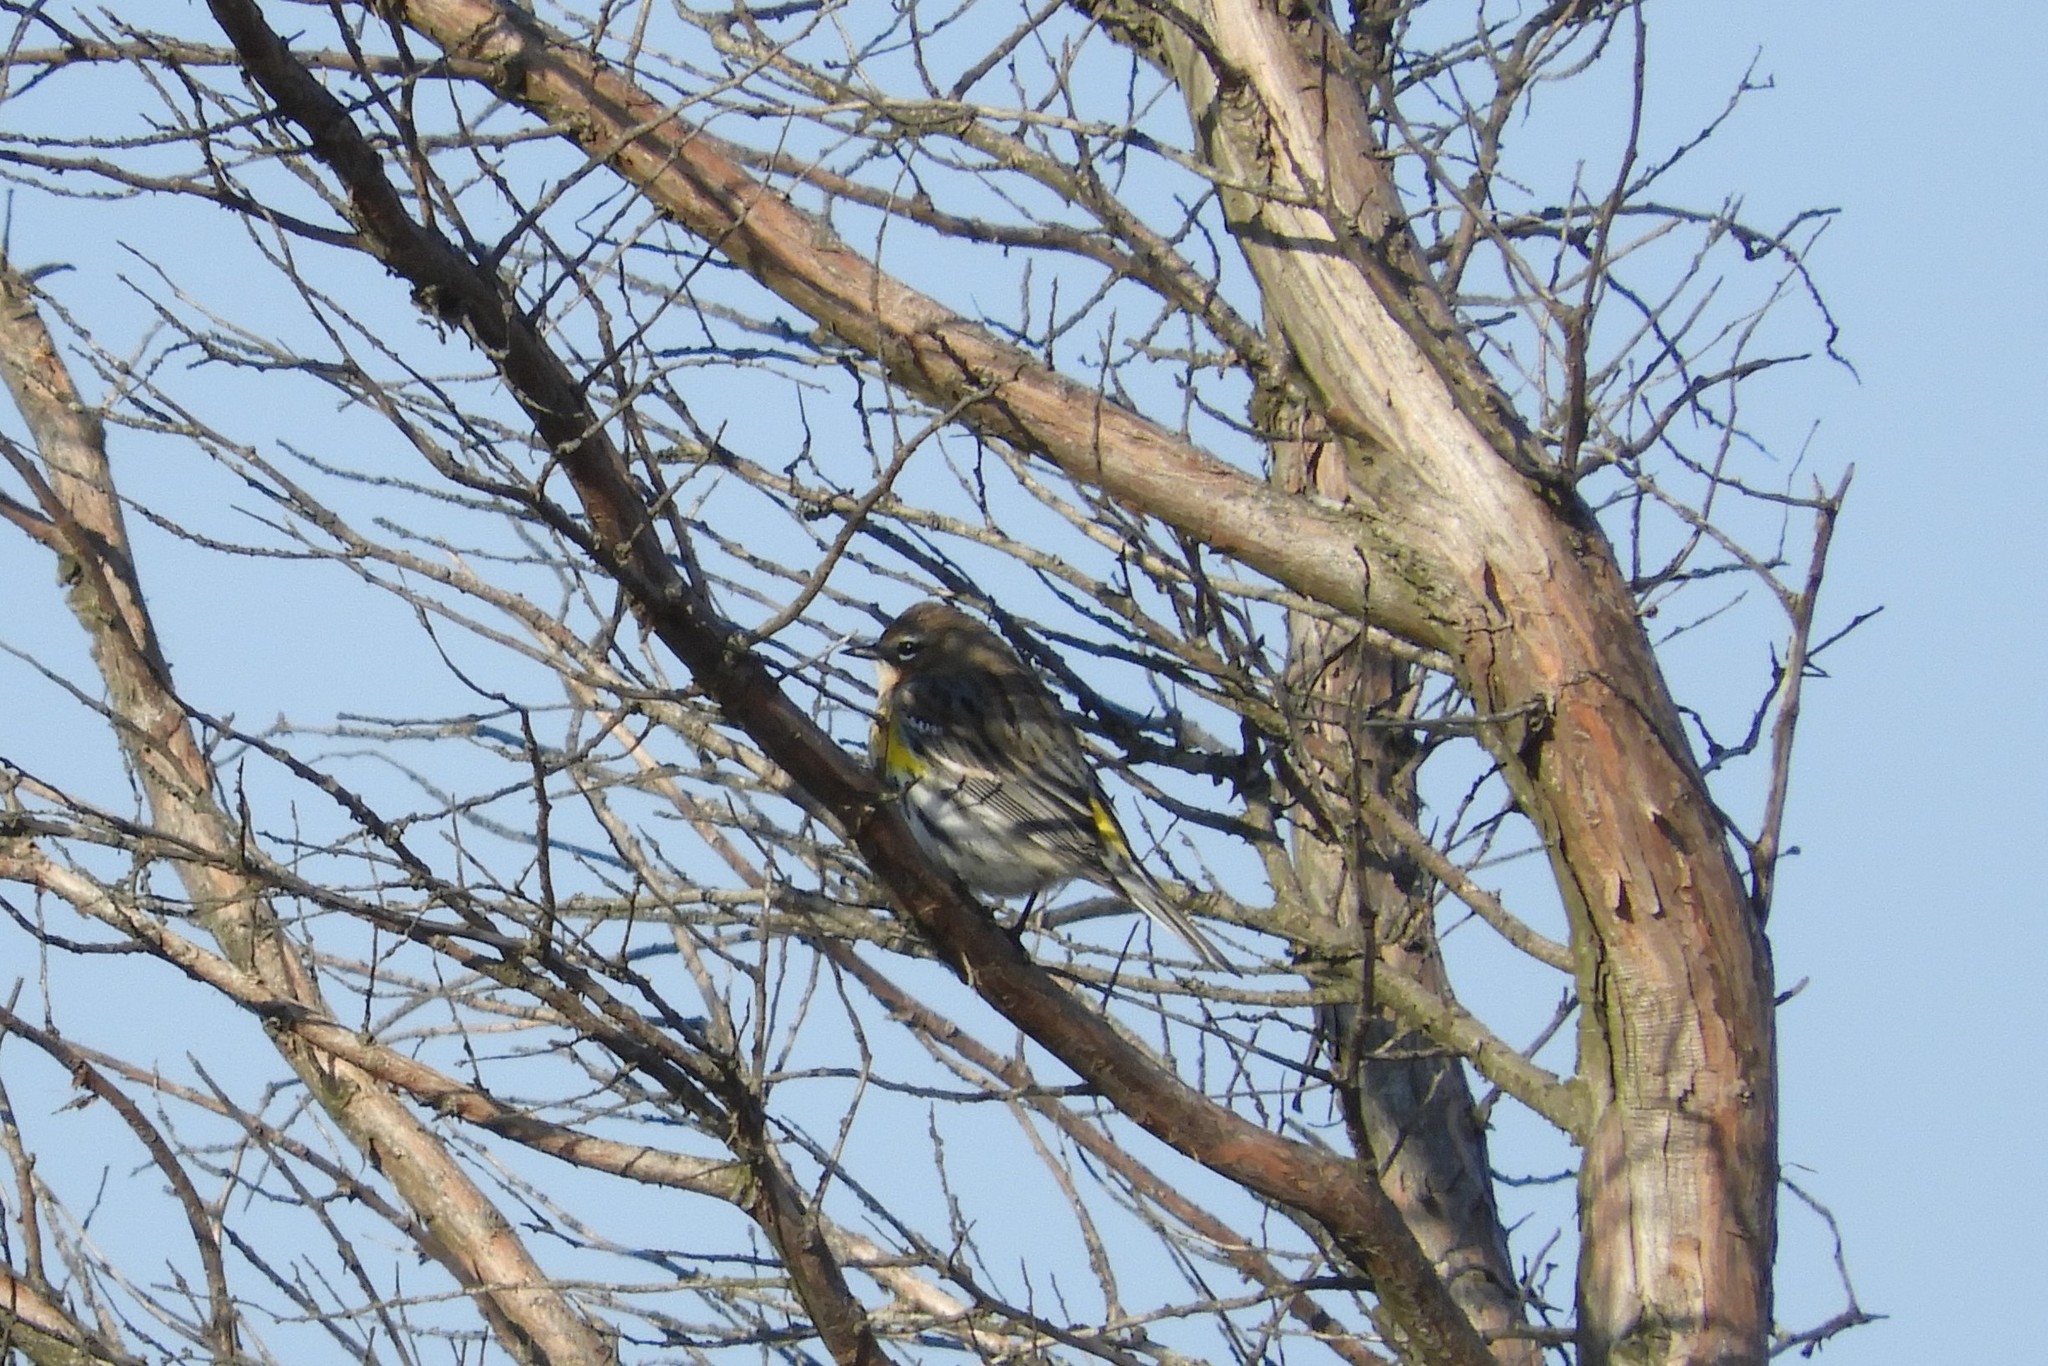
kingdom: Animalia
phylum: Chordata
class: Aves
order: Passeriformes
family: Parulidae
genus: Setophaga
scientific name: Setophaga coronata
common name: Myrtle warbler
